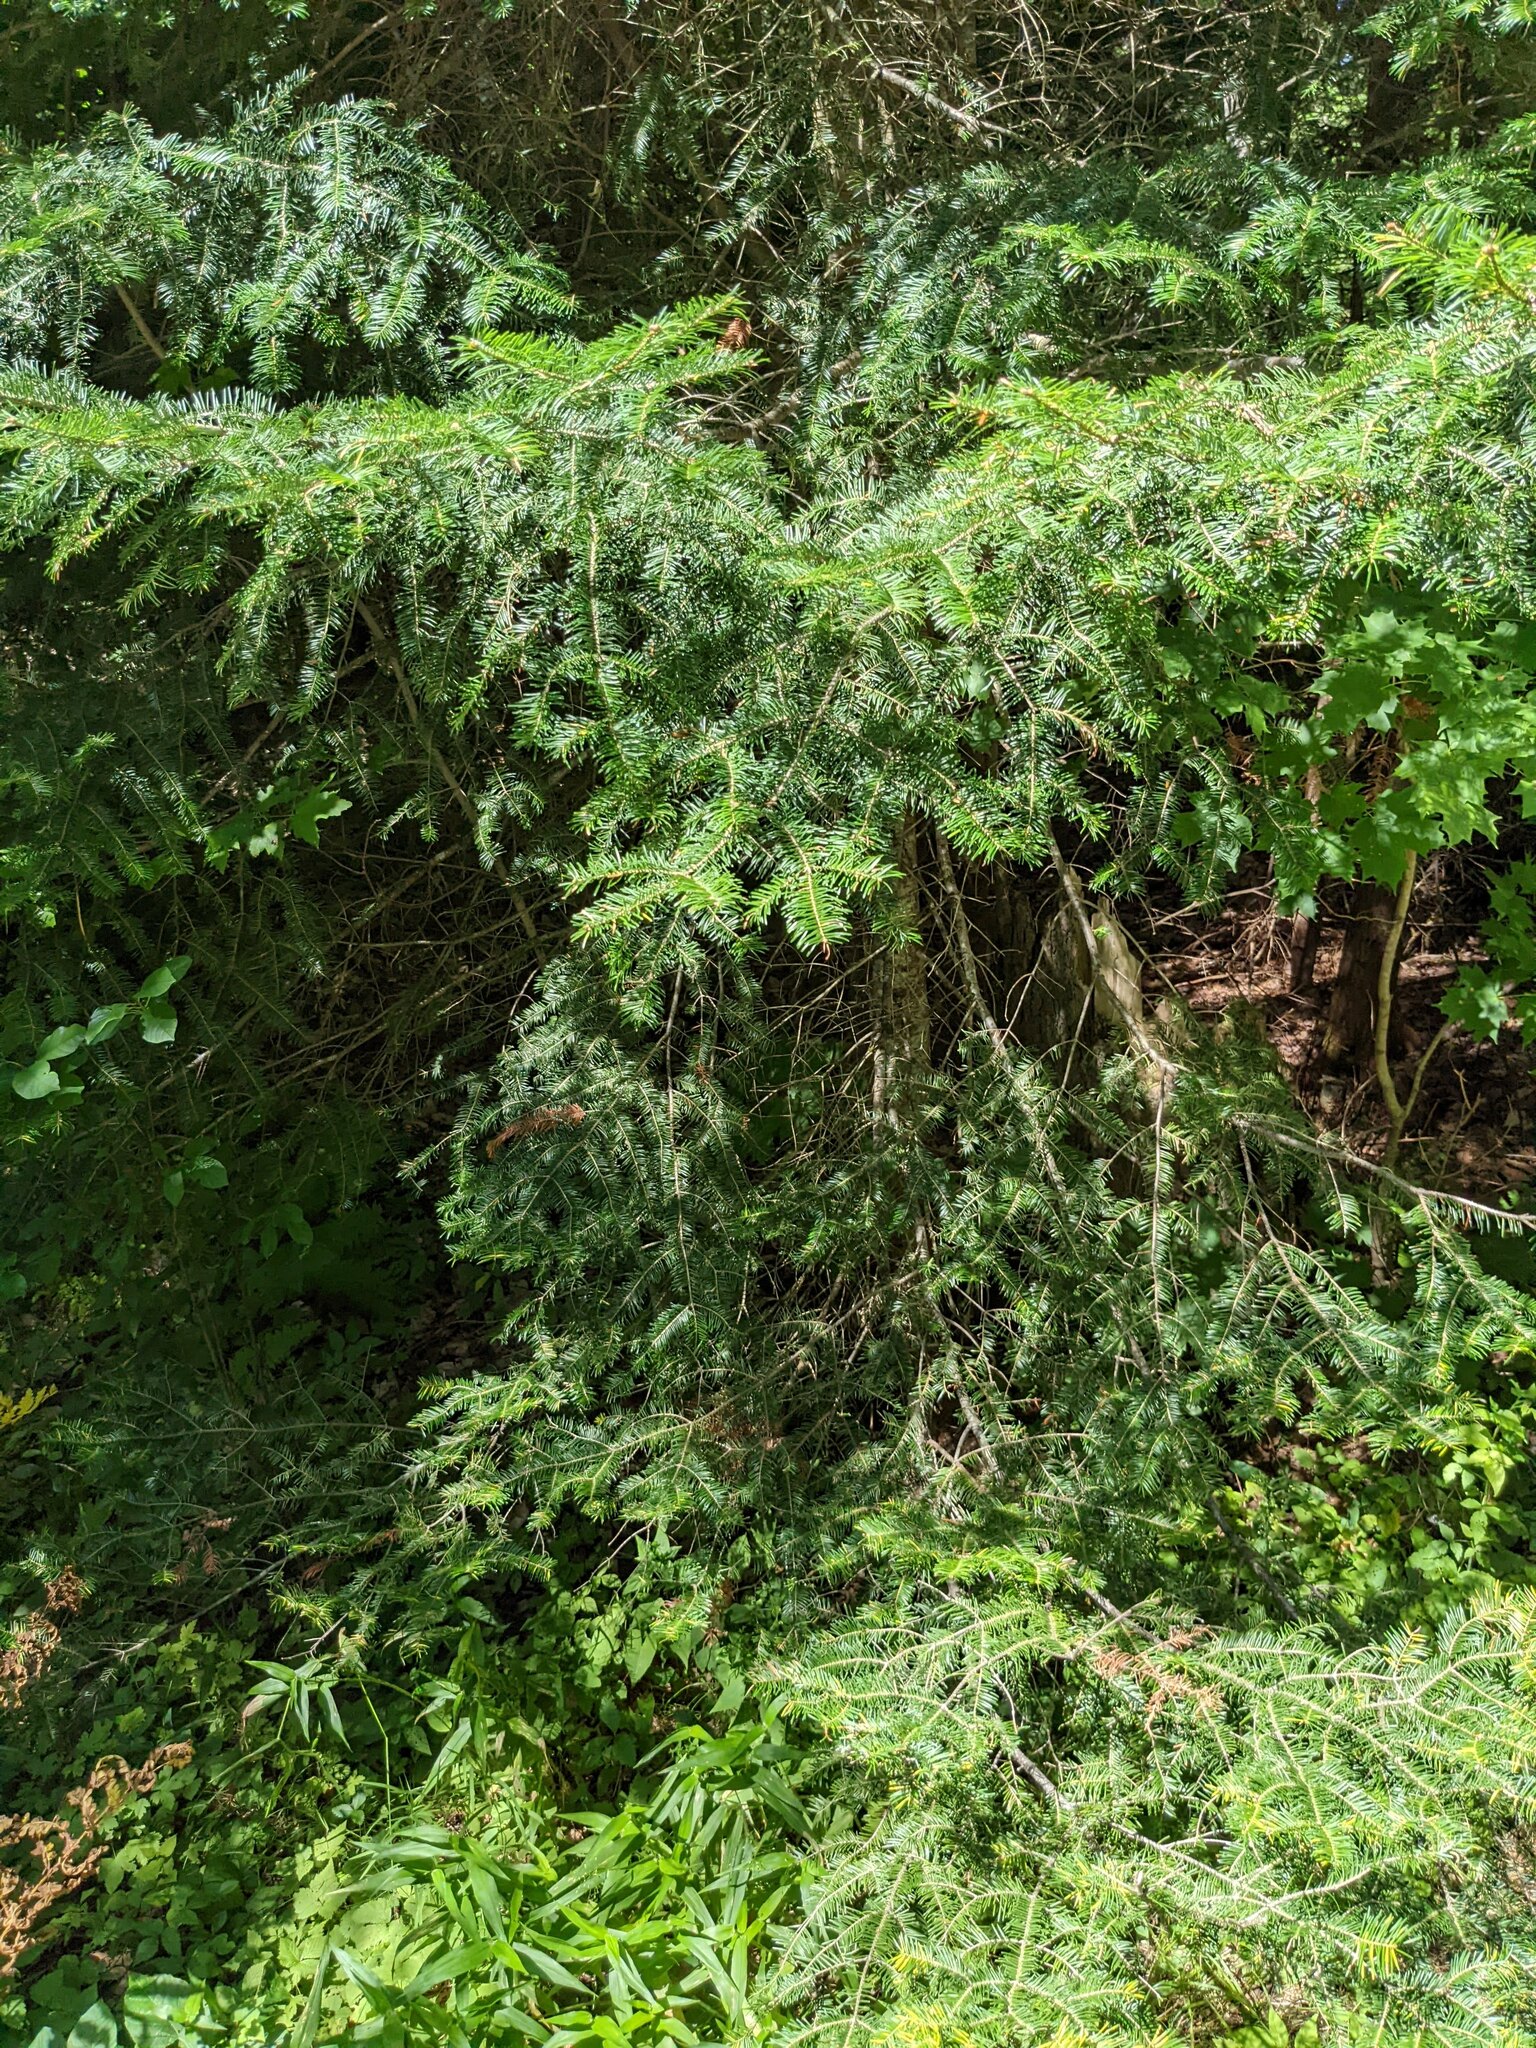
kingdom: Plantae
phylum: Tracheophyta
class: Pinopsida
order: Pinales
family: Pinaceae
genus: Abies
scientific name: Abies balsamea
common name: Balsam fir
